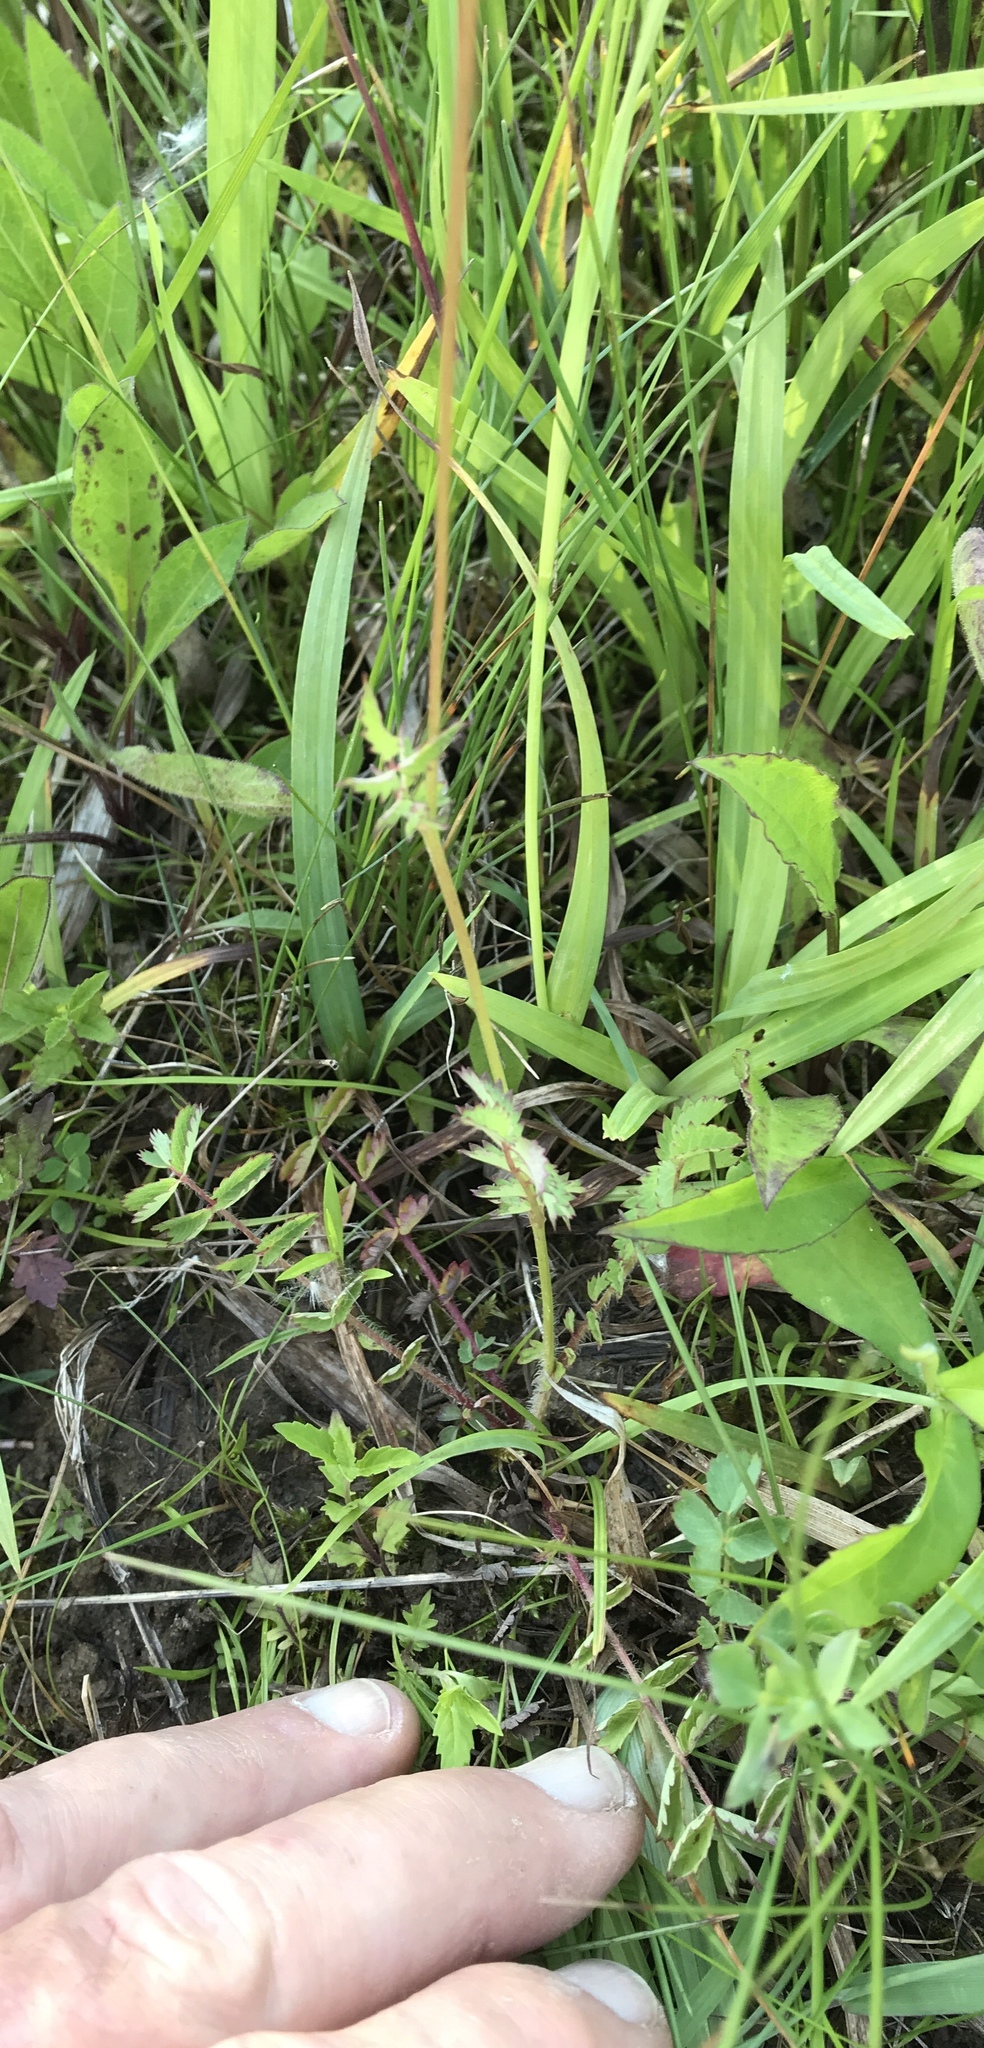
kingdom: Plantae
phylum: Tracheophyta
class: Magnoliopsida
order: Rosales
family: Rosaceae
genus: Poterium
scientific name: Poterium sanguisorba
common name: Salad burnet
